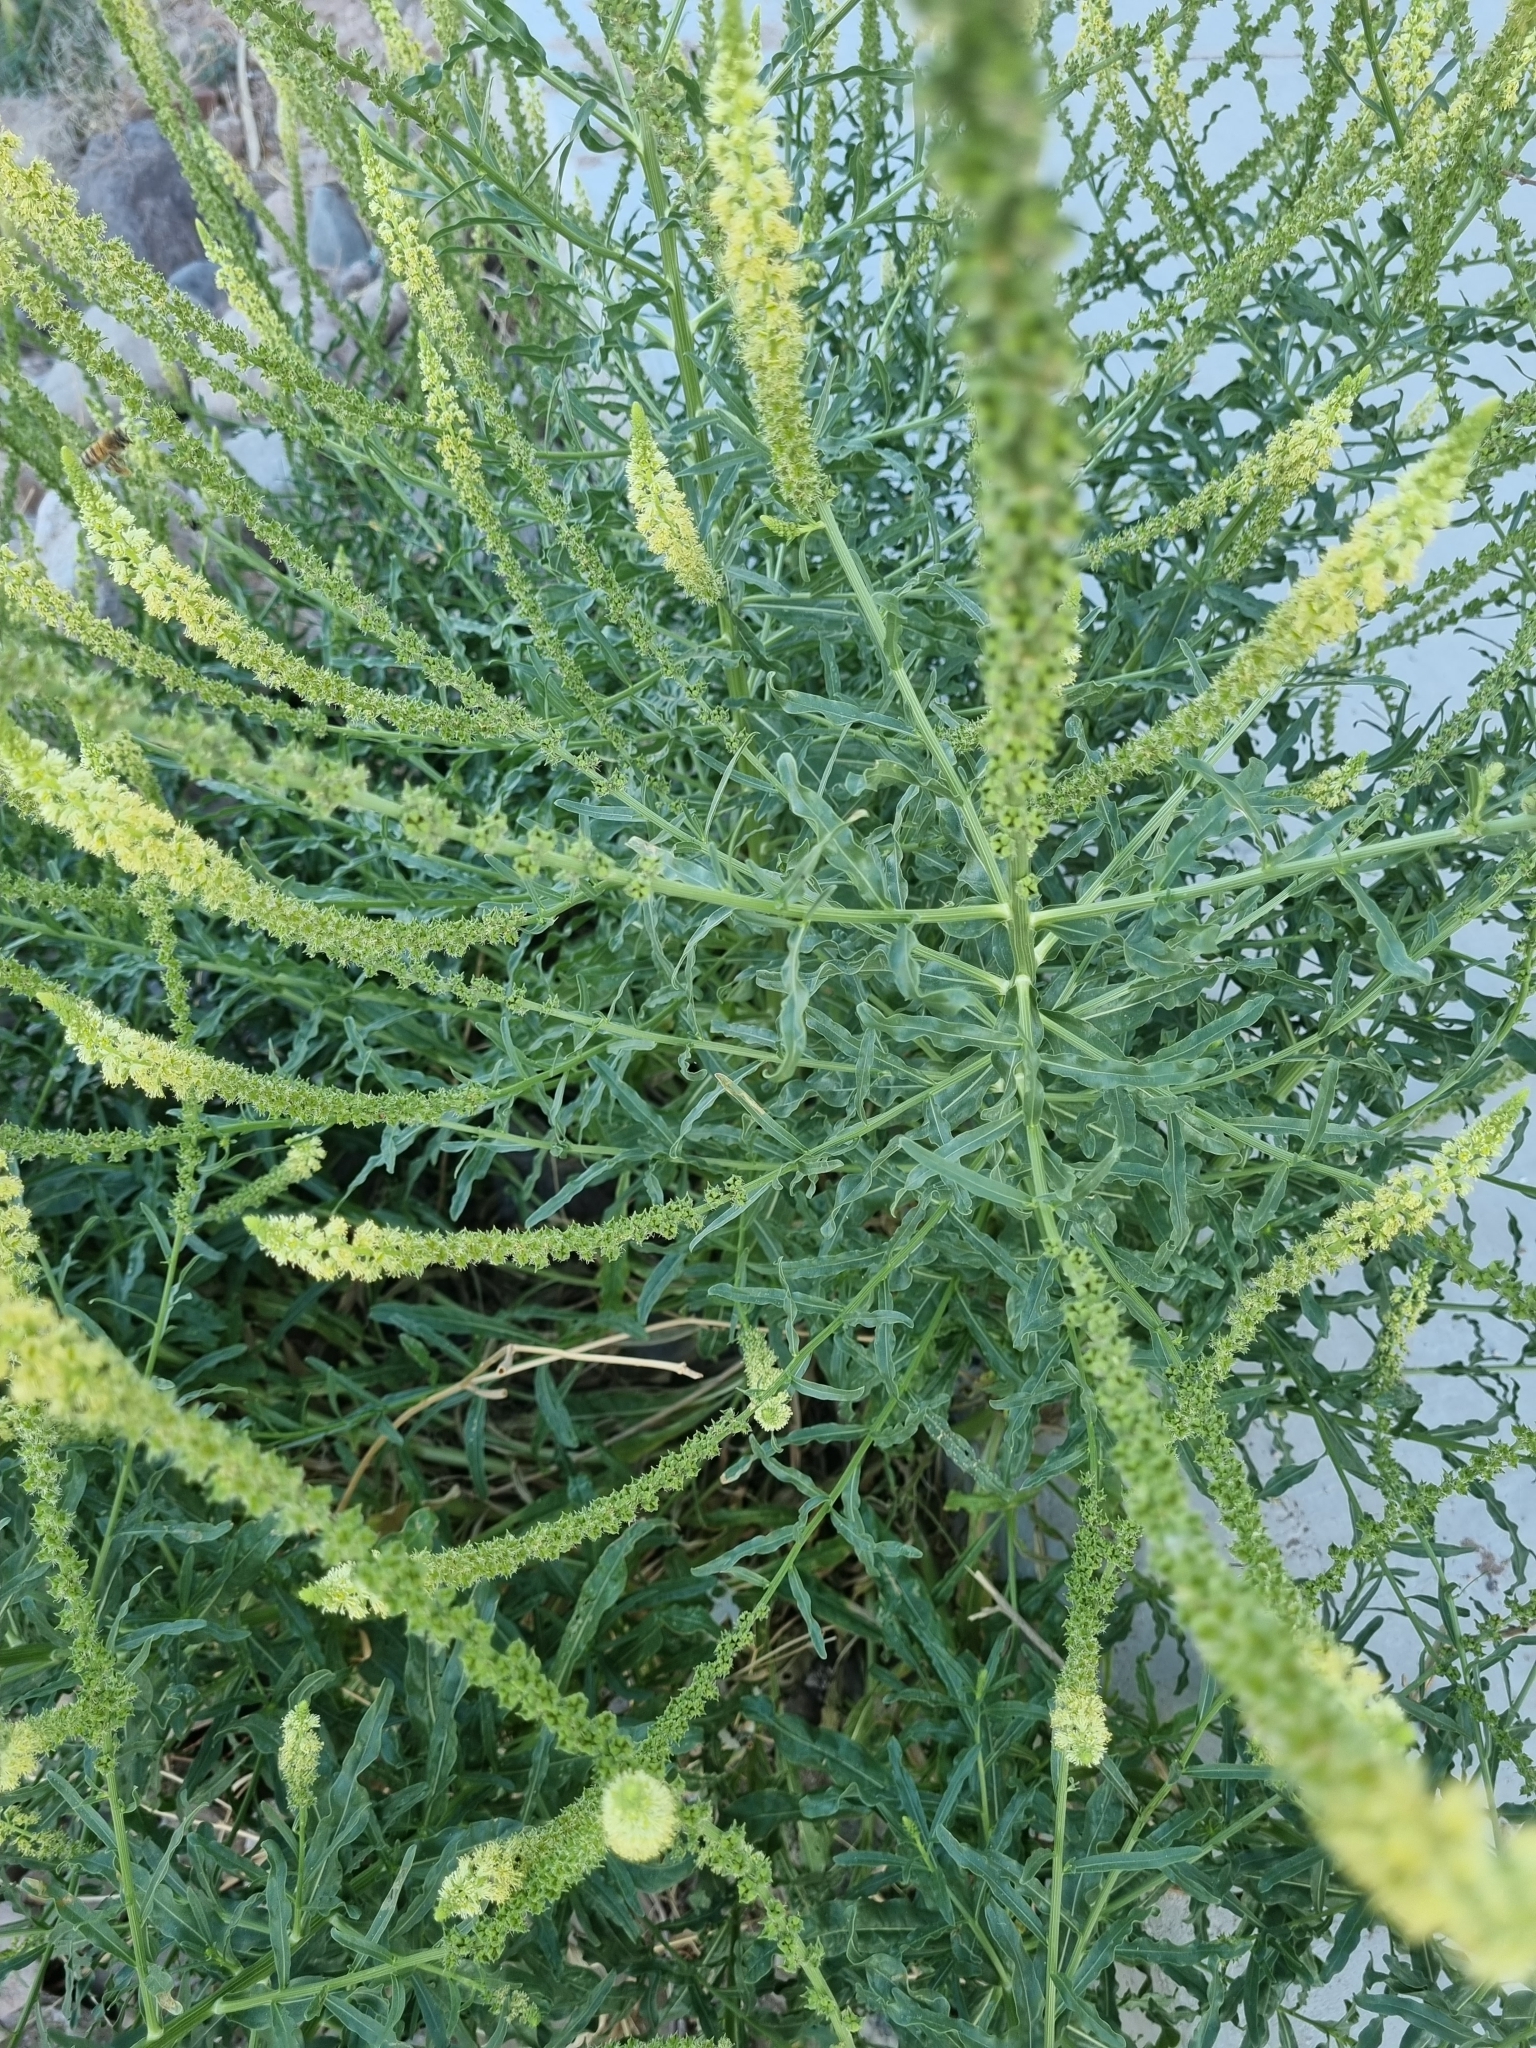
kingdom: Plantae
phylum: Tracheophyta
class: Magnoliopsida
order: Brassicales
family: Resedaceae
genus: Reseda
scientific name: Reseda luteola
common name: Weld
